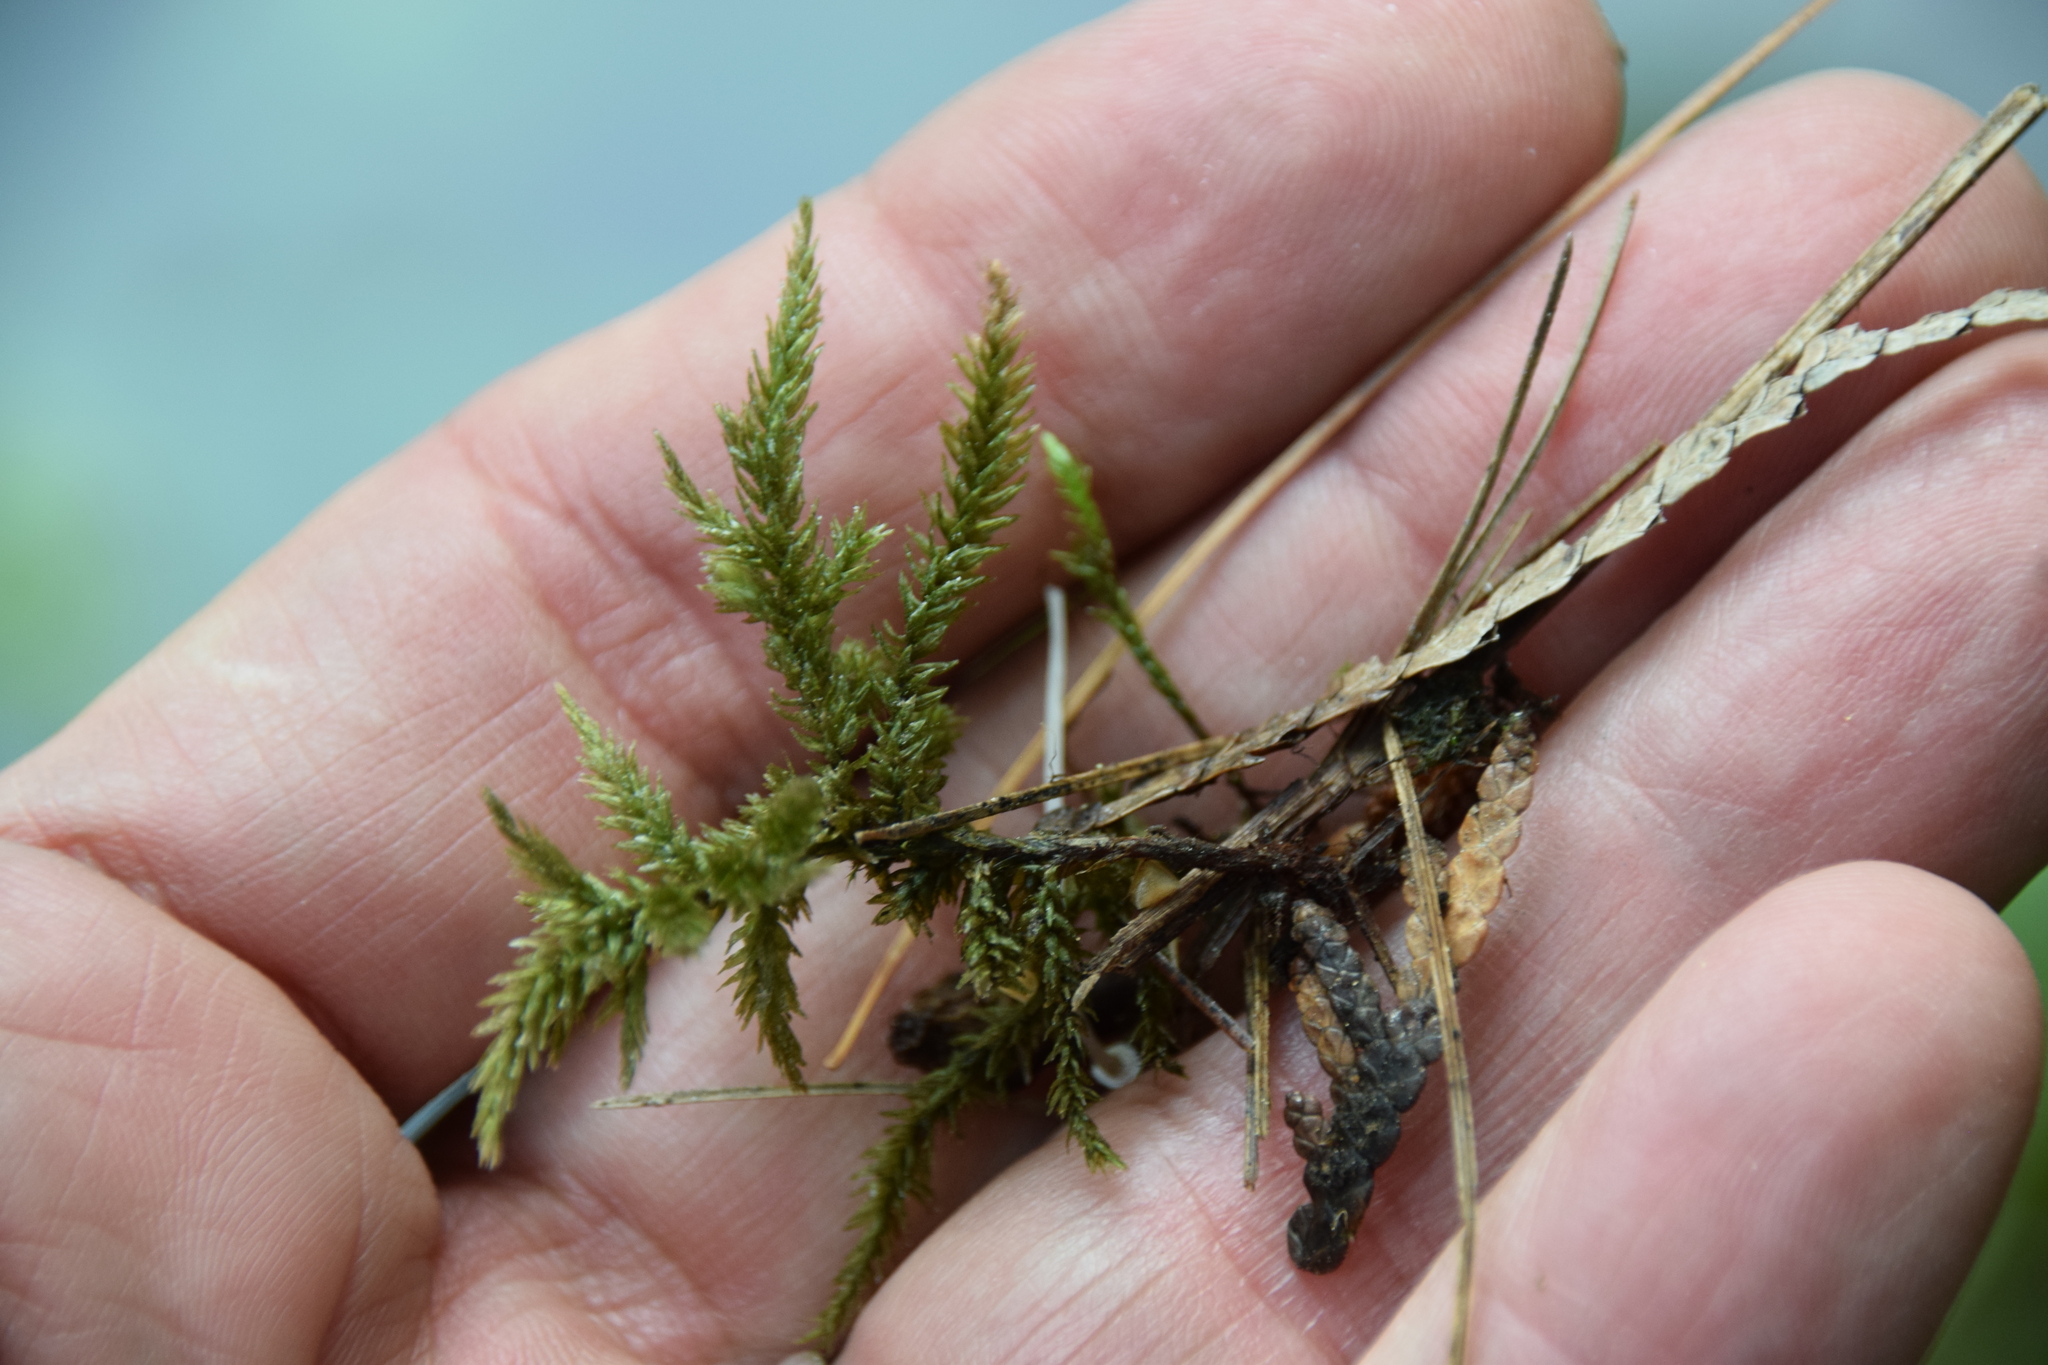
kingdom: Plantae
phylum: Bryophyta
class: Bryopsida
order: Hypnales
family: Climaciaceae
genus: Climacium
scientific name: Climacium dendroides
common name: Northern tree moss
